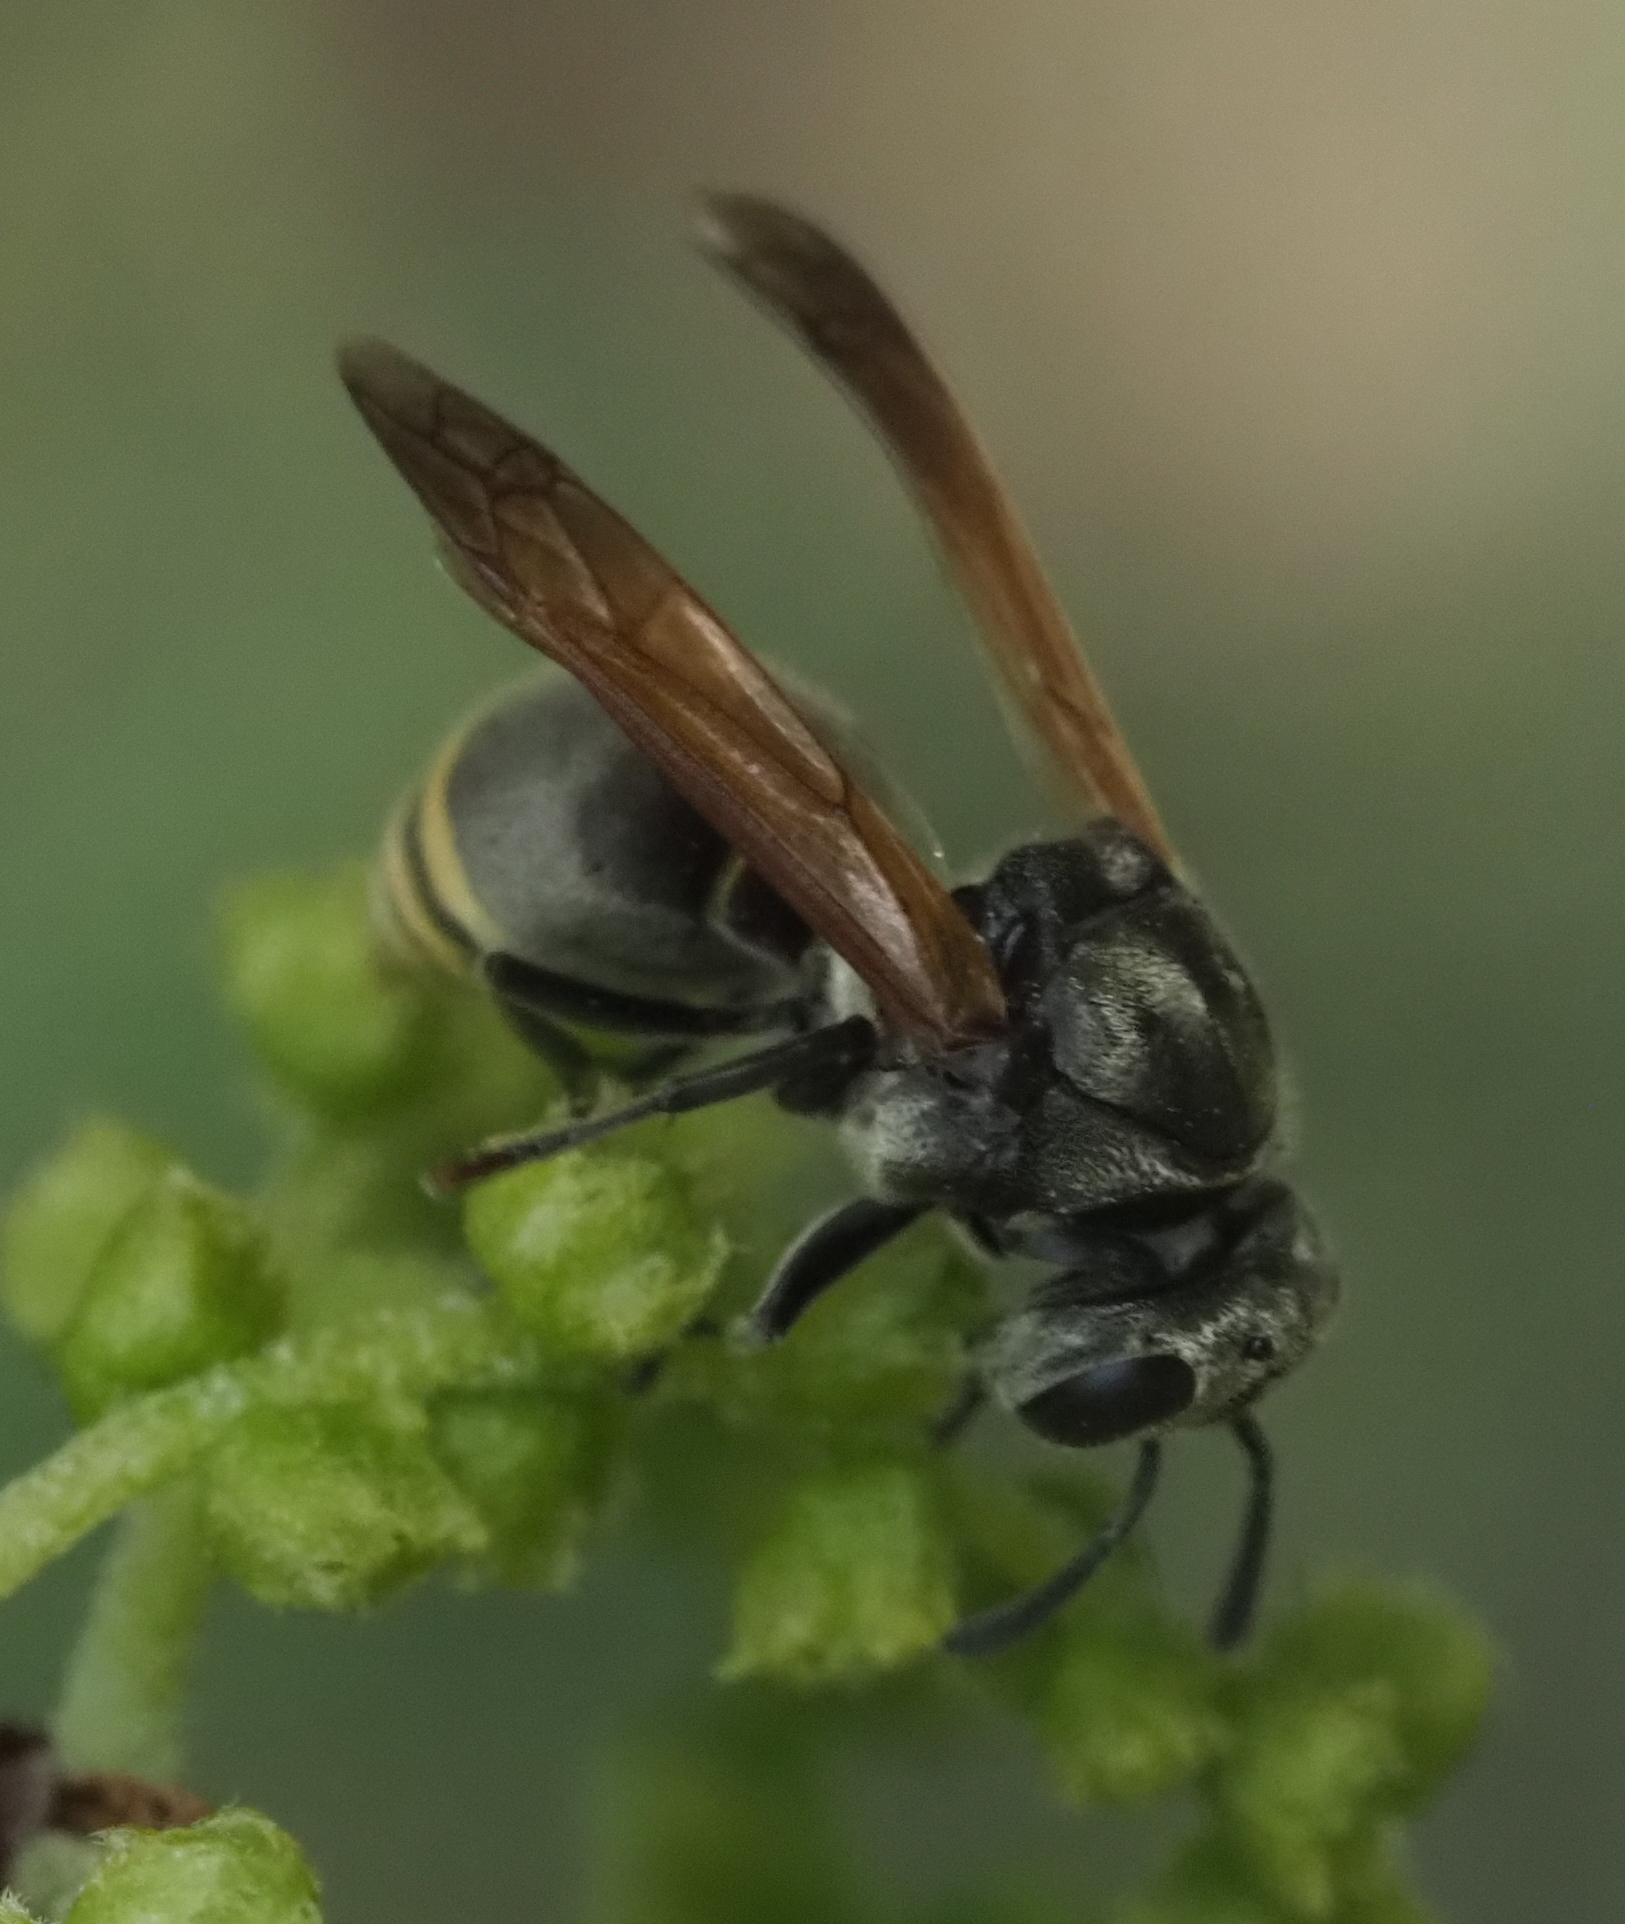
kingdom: Animalia
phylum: Arthropoda
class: Insecta
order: Hymenoptera
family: Vespidae
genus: Brachygastra
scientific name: Brachygastra mellifica
